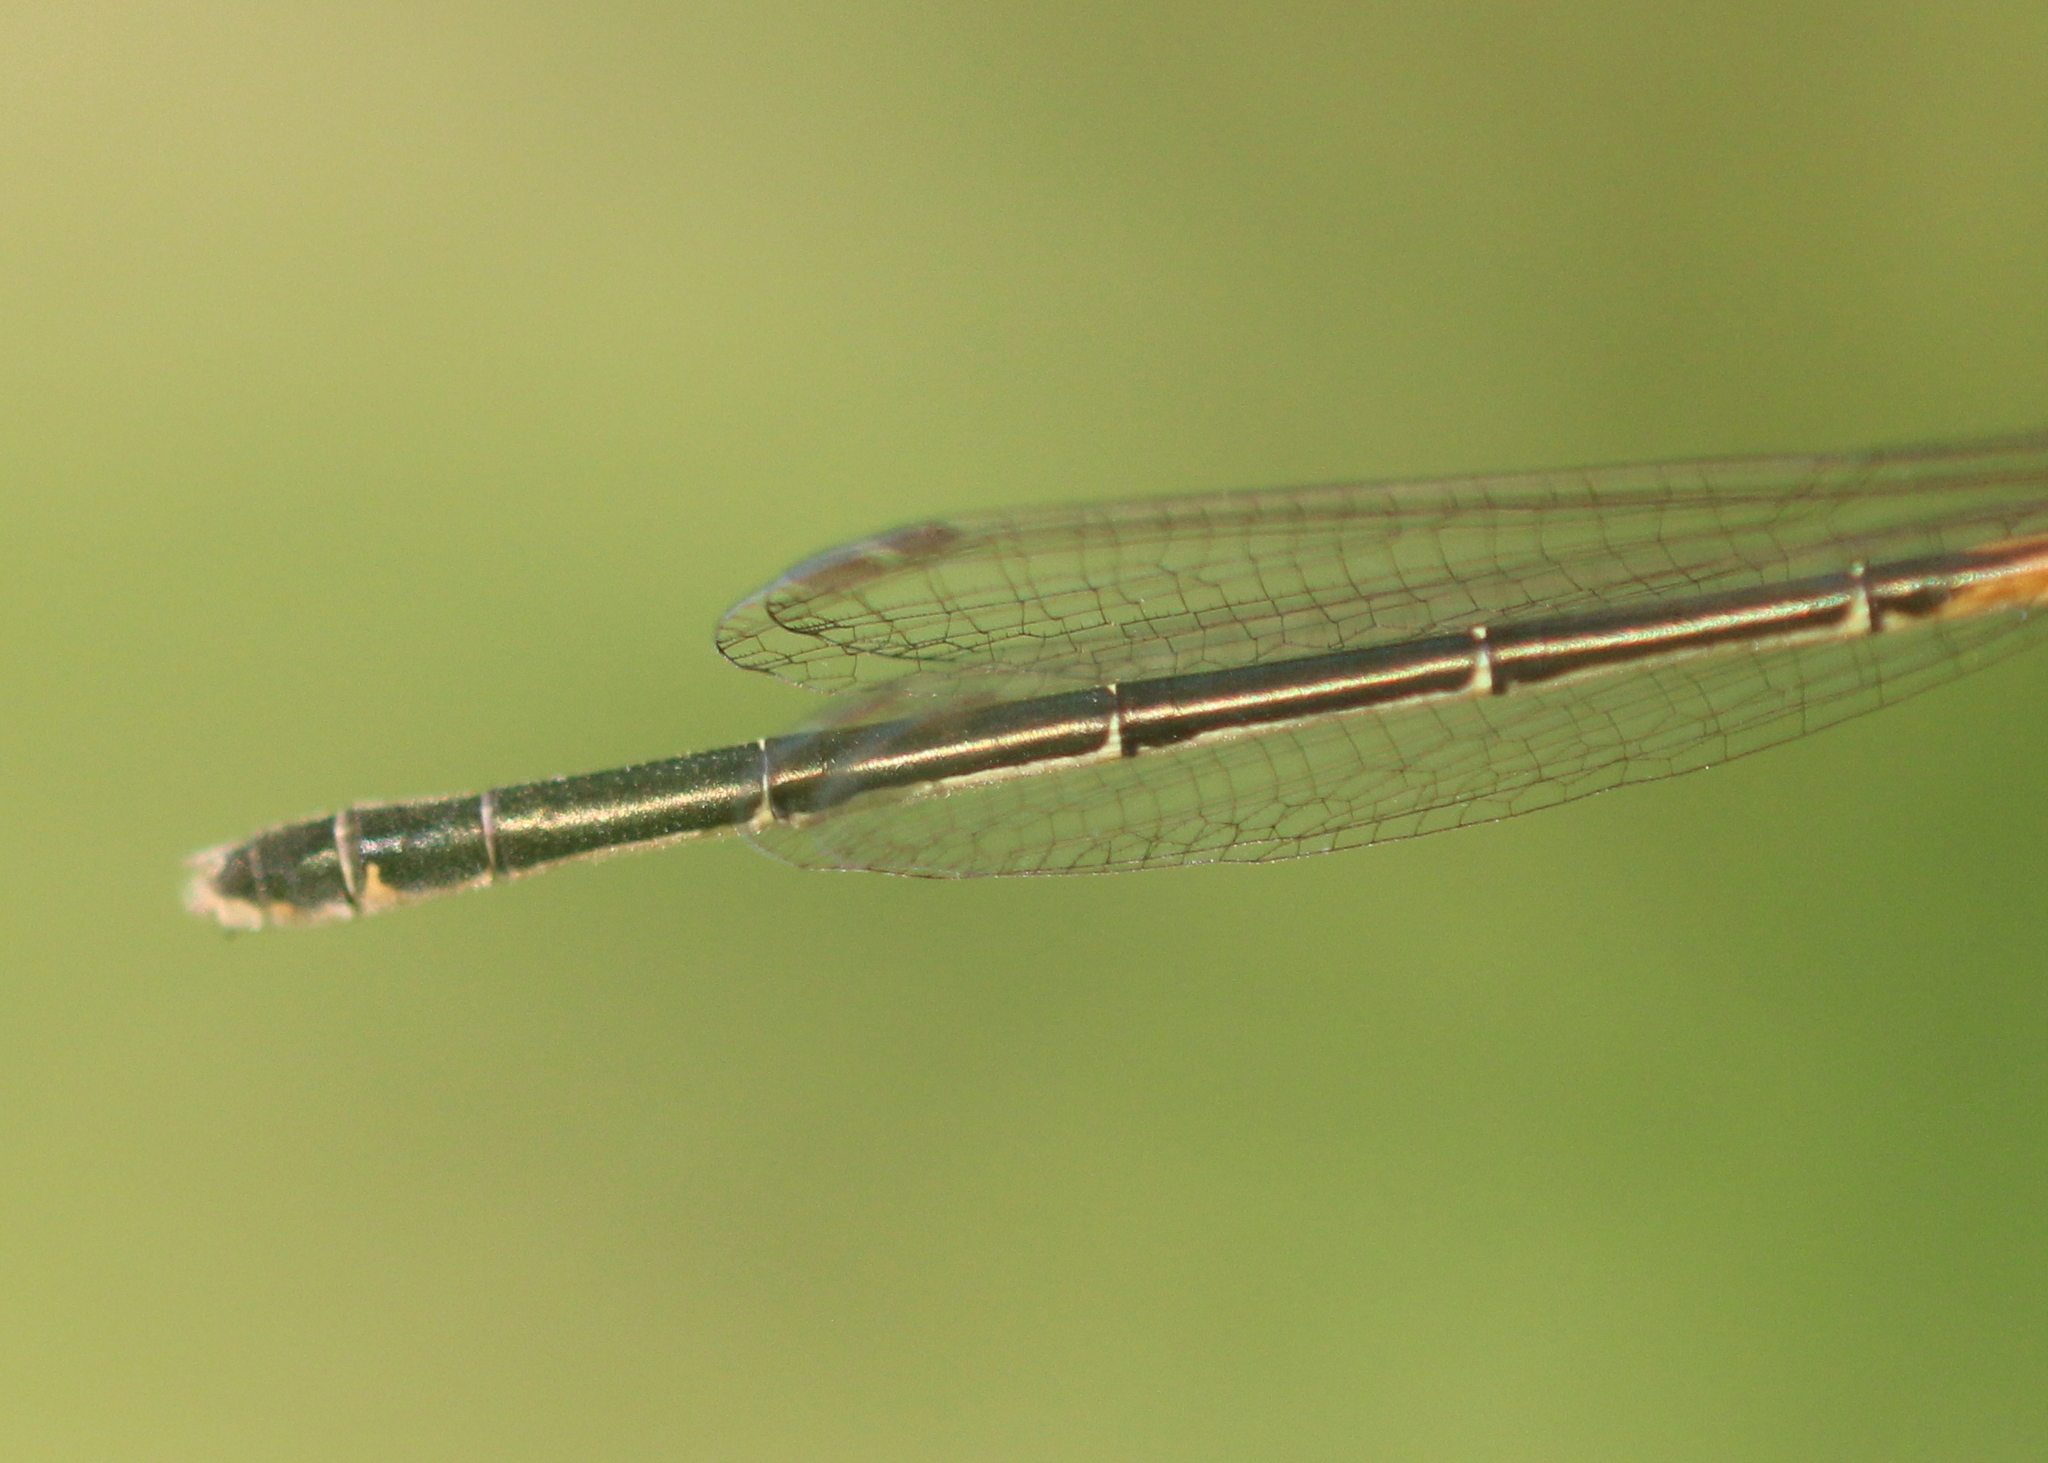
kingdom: Animalia
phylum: Arthropoda
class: Insecta
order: Odonata
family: Coenagrionidae
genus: Ischnura
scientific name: Ischnura verticalis
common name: Eastern forktail
